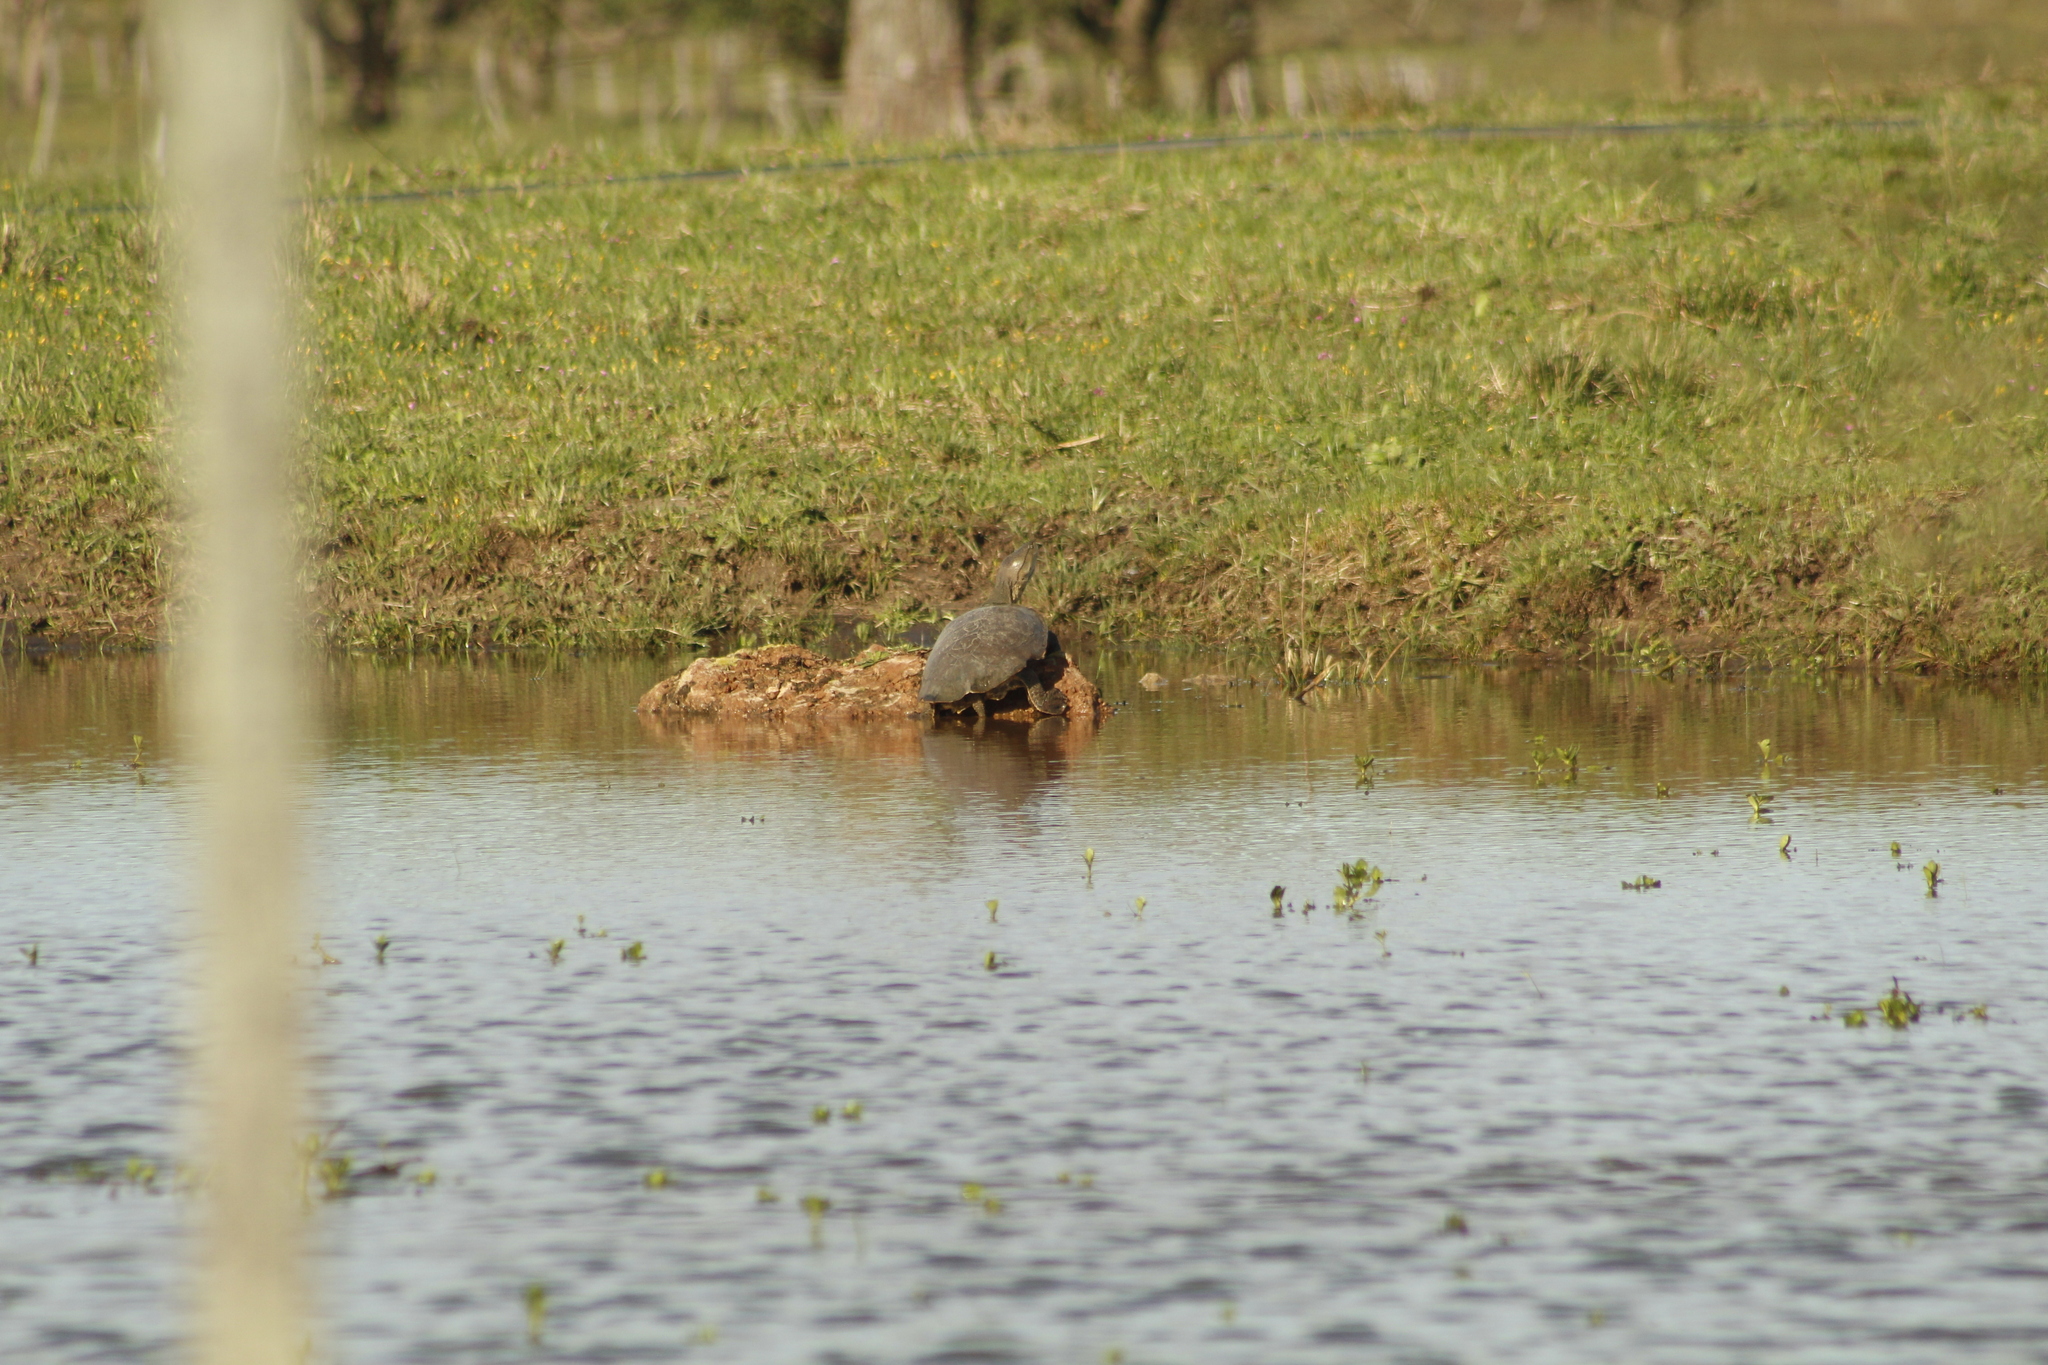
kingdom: Animalia
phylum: Chordata
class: Testudines
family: Chelidae
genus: Phrynops
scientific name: Phrynops hilarii
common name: Side-necked turtle of saint hillaire
